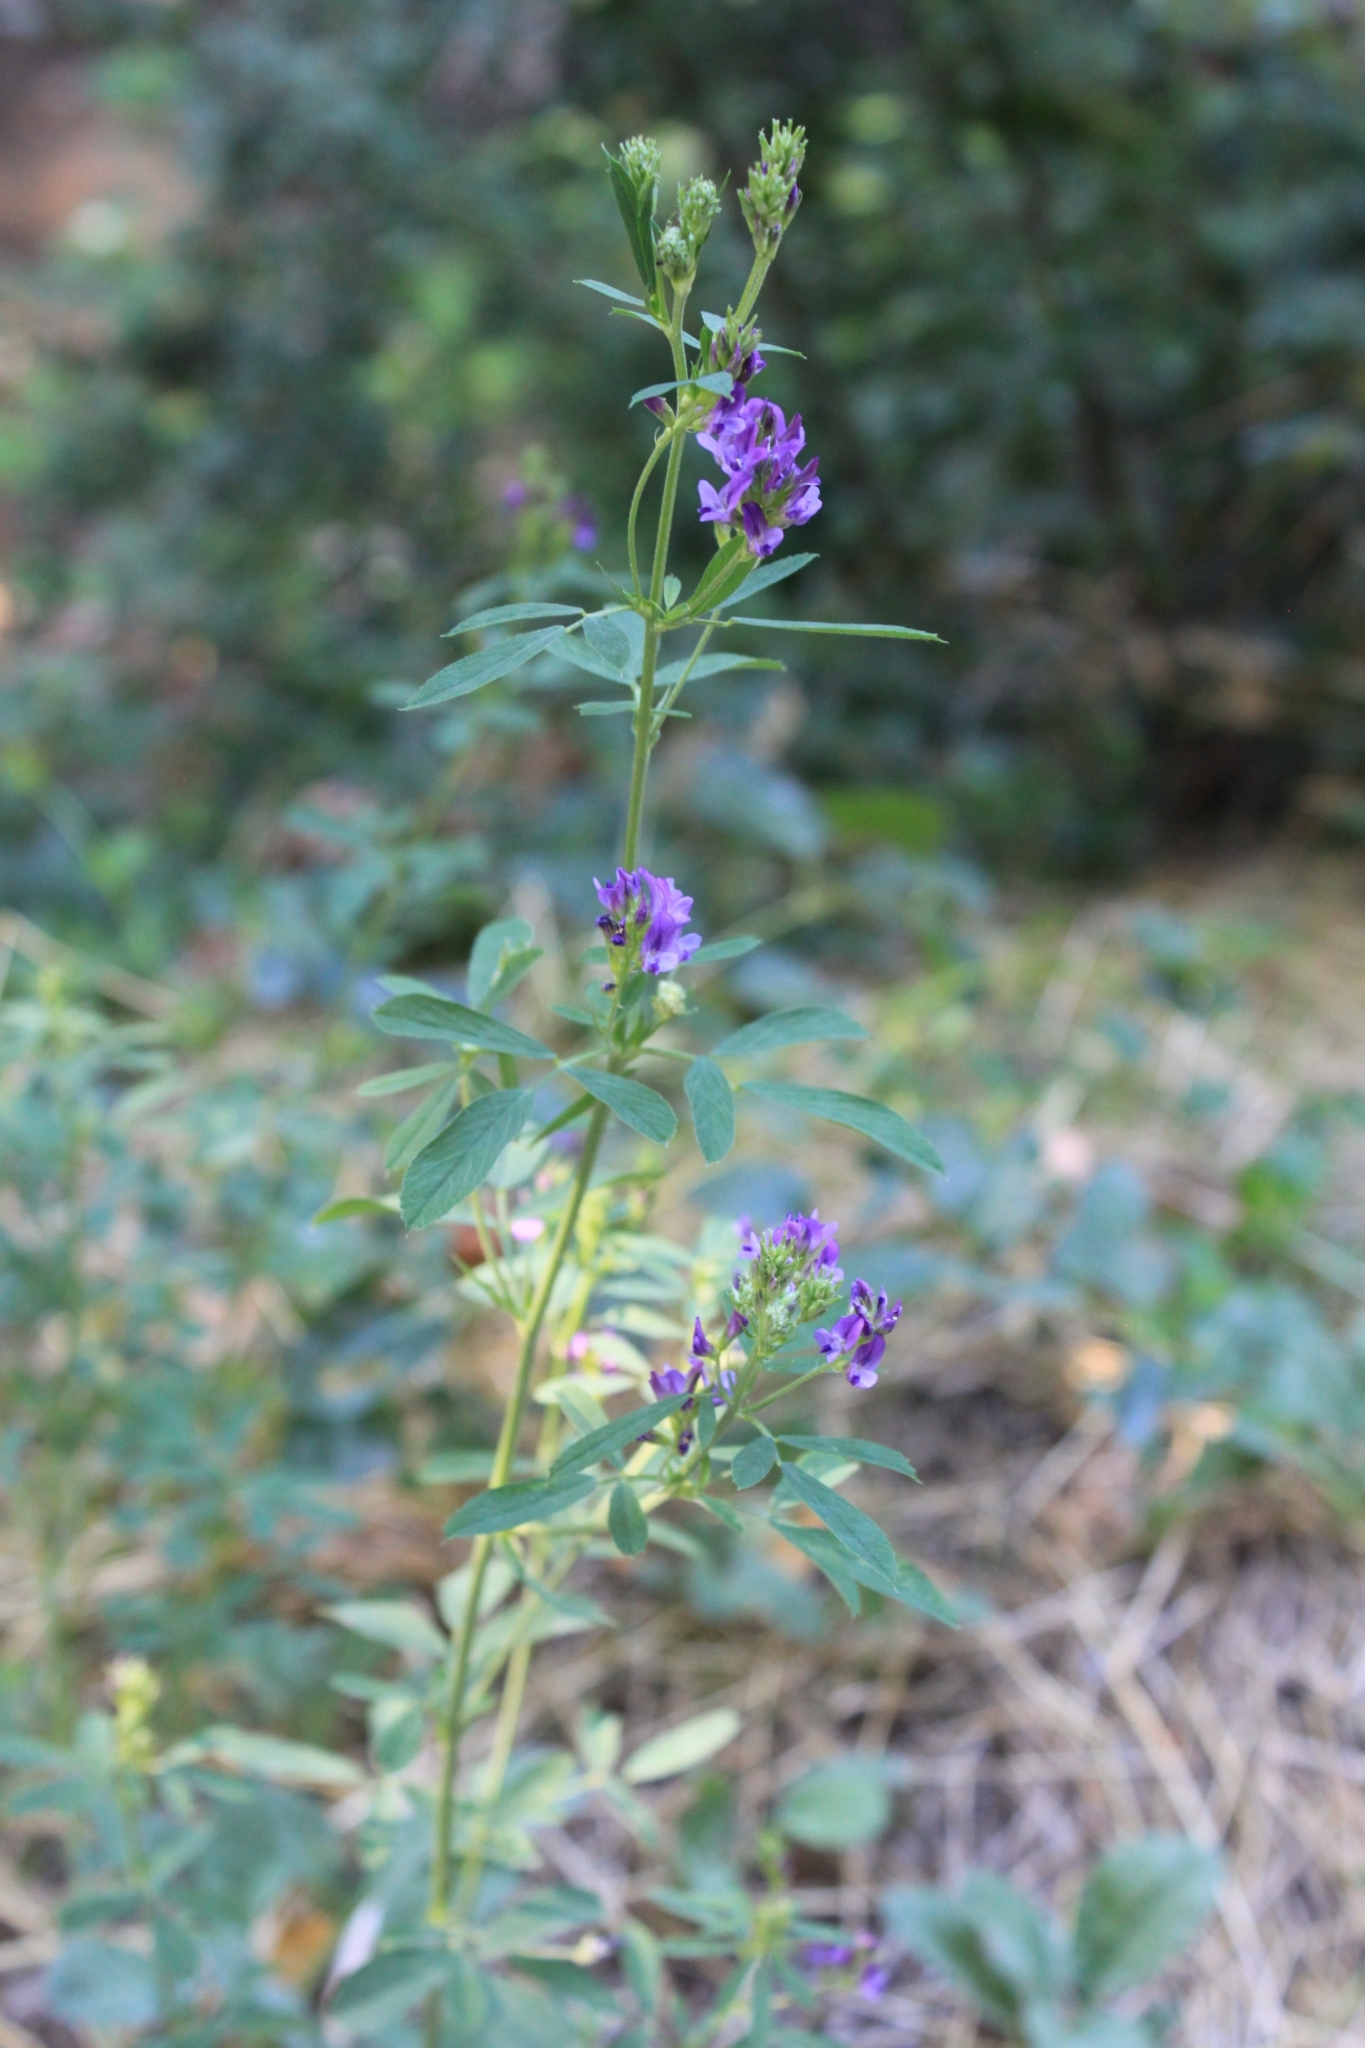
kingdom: Plantae
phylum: Tracheophyta
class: Magnoliopsida
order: Fabales
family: Fabaceae
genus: Medicago
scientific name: Medicago sativa
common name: Alfalfa
